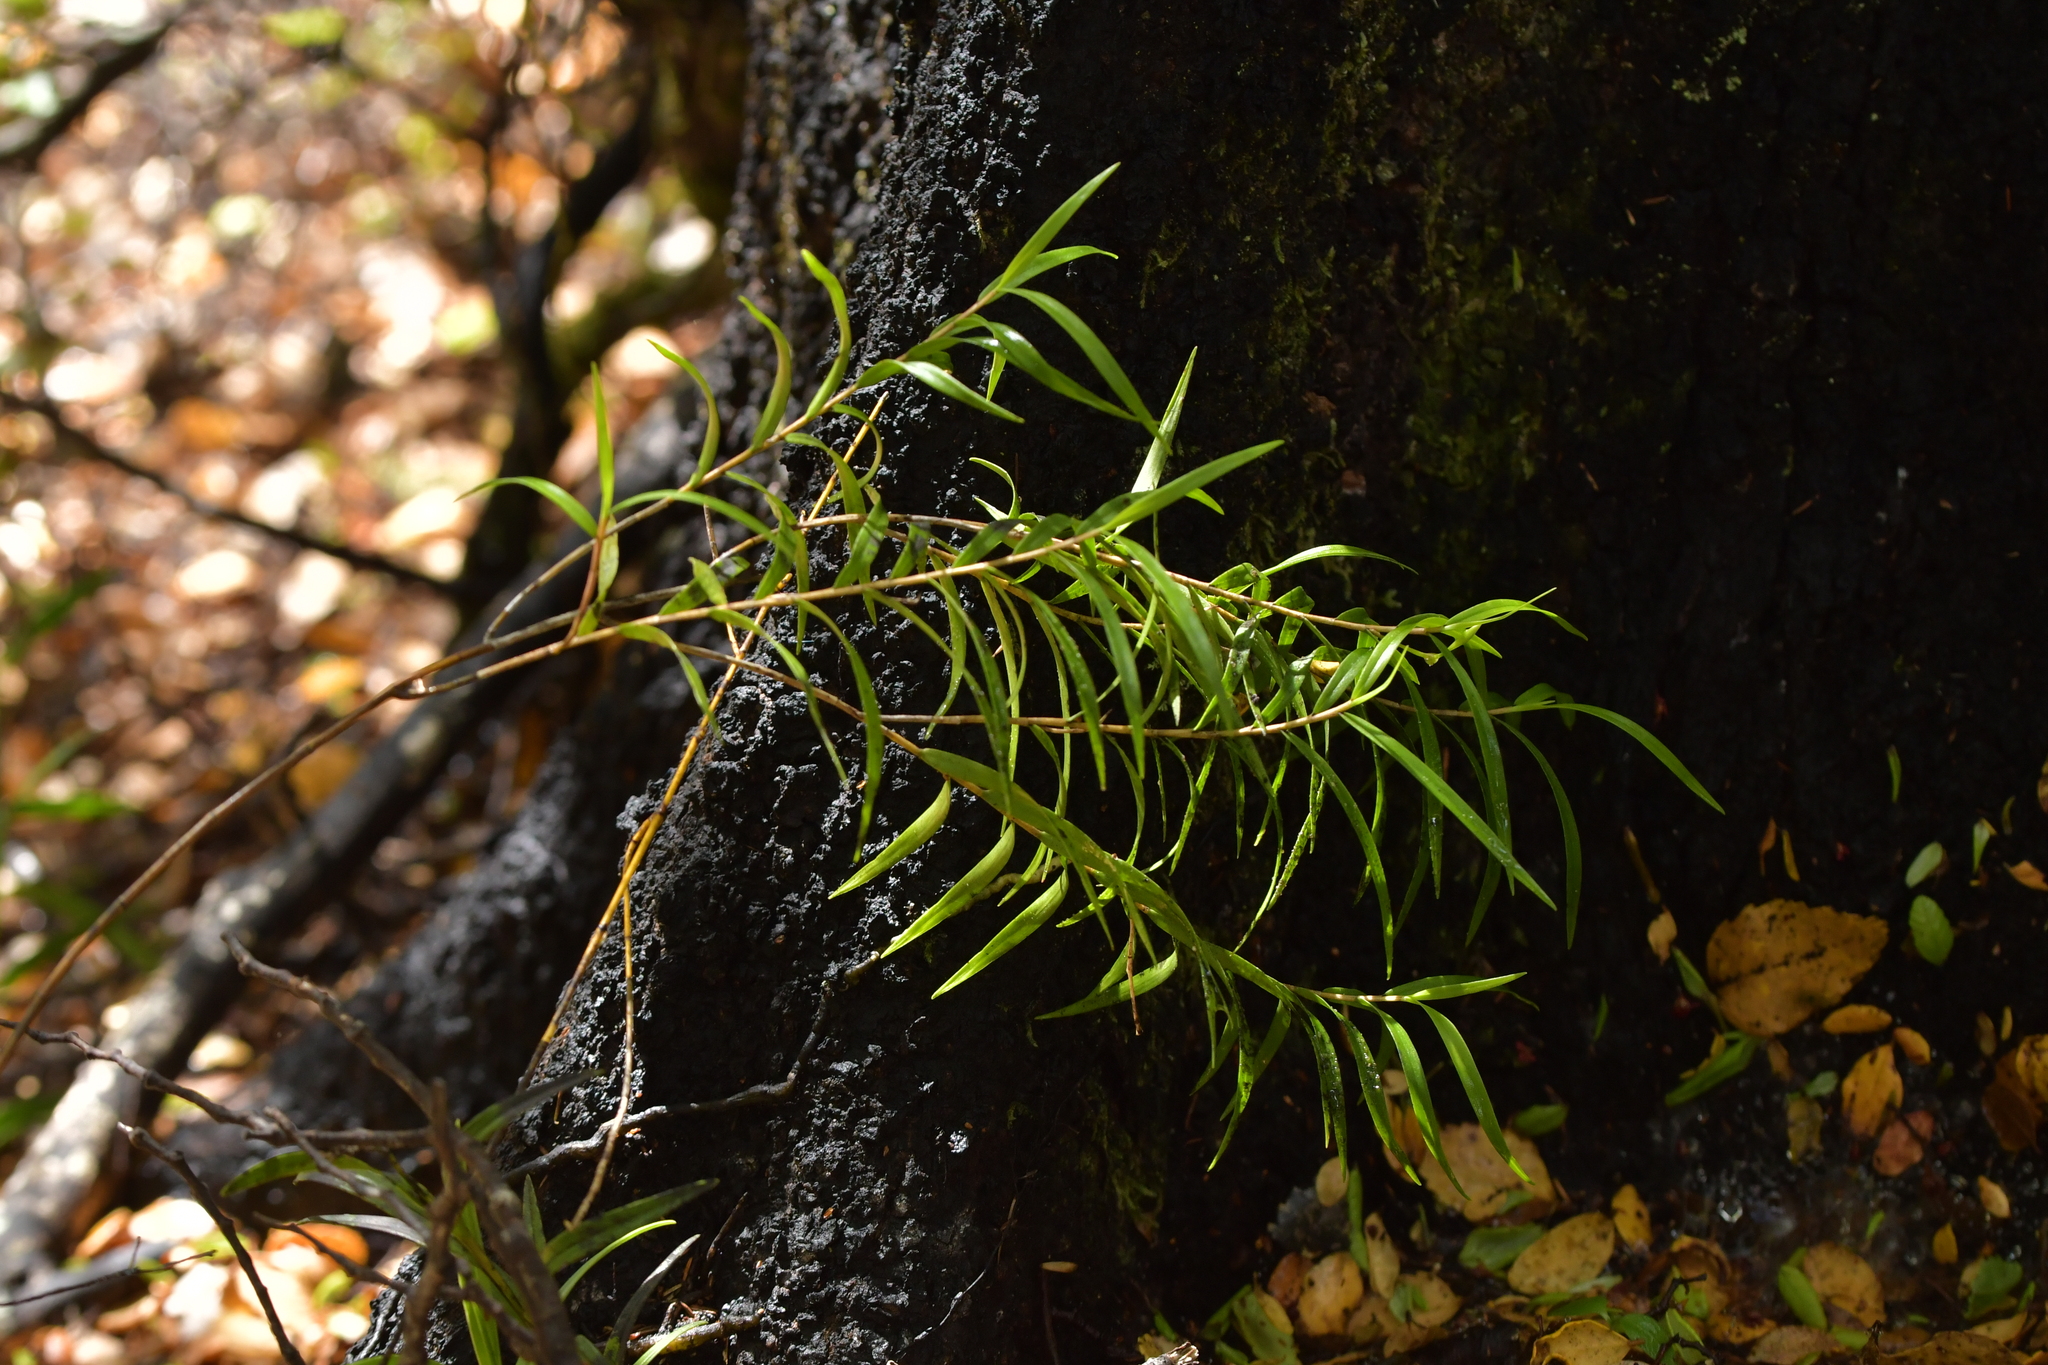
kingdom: Plantae
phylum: Tracheophyta
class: Liliopsida
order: Asparagales
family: Orchidaceae
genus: Dendrobium
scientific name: Dendrobium cunninghamii
